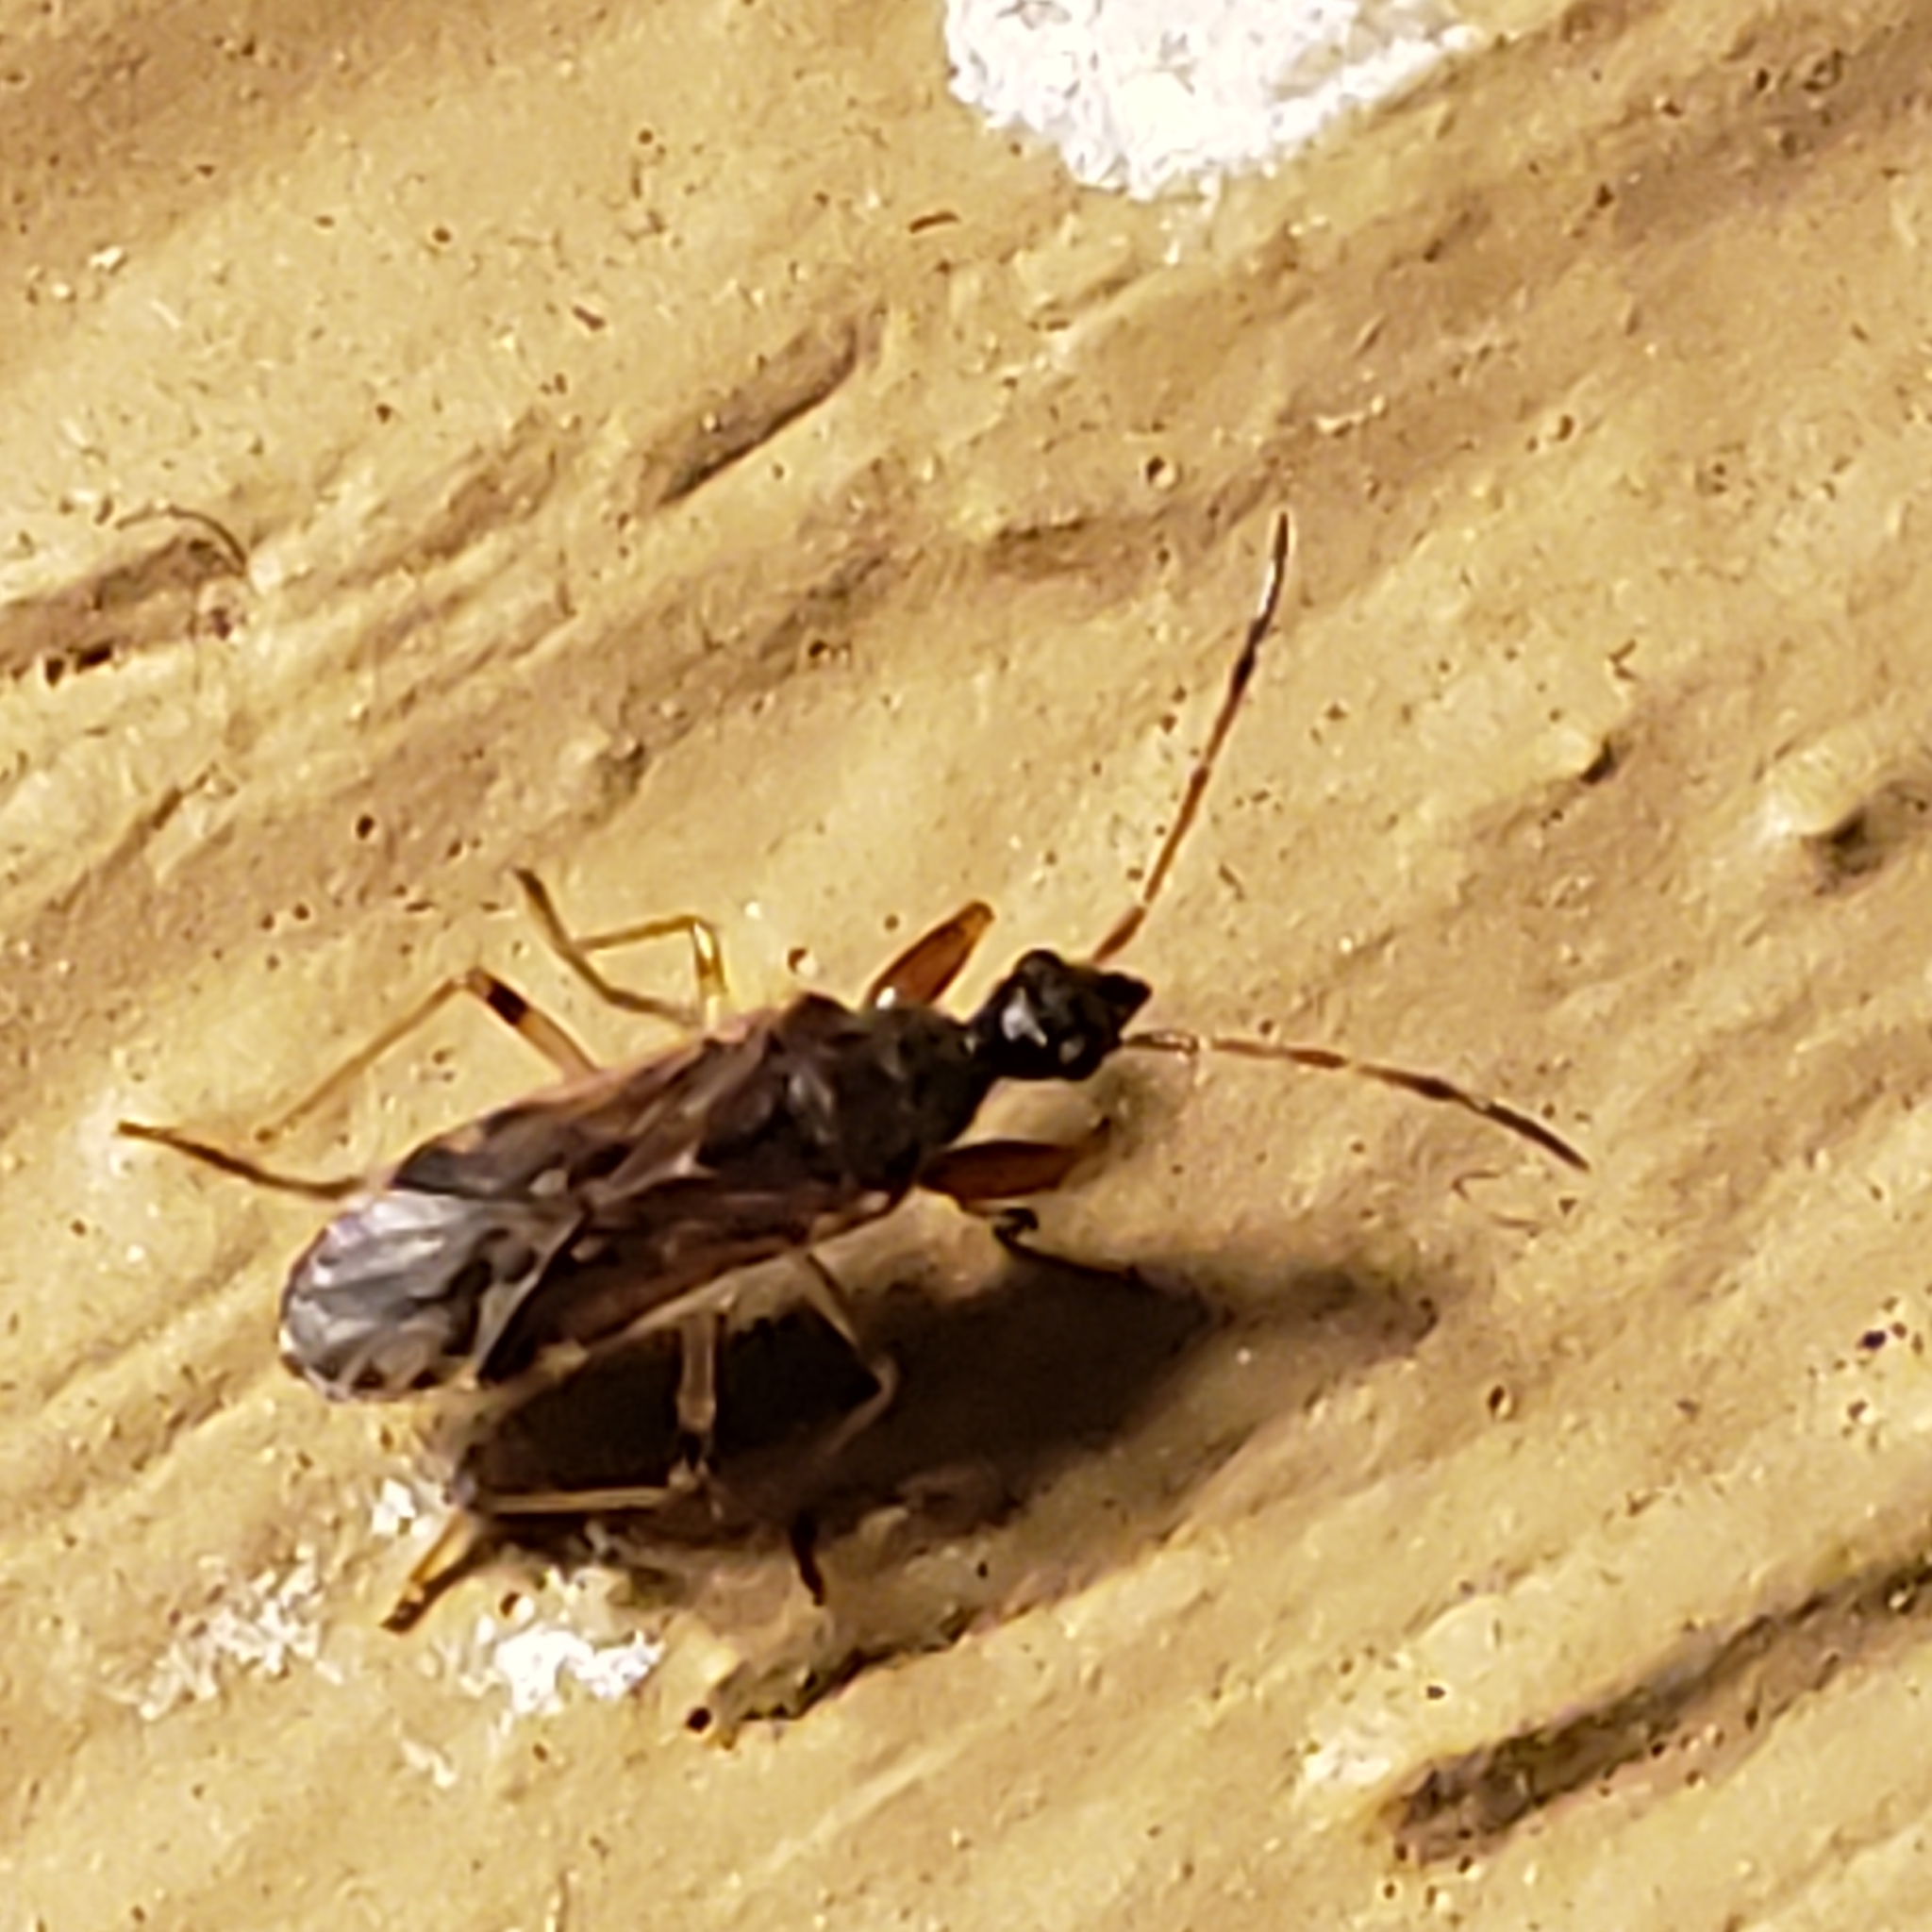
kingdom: Animalia
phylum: Arthropoda
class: Insecta
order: Hemiptera
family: Rhyparochromidae
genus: Heraeus
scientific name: Heraeus plebejus
